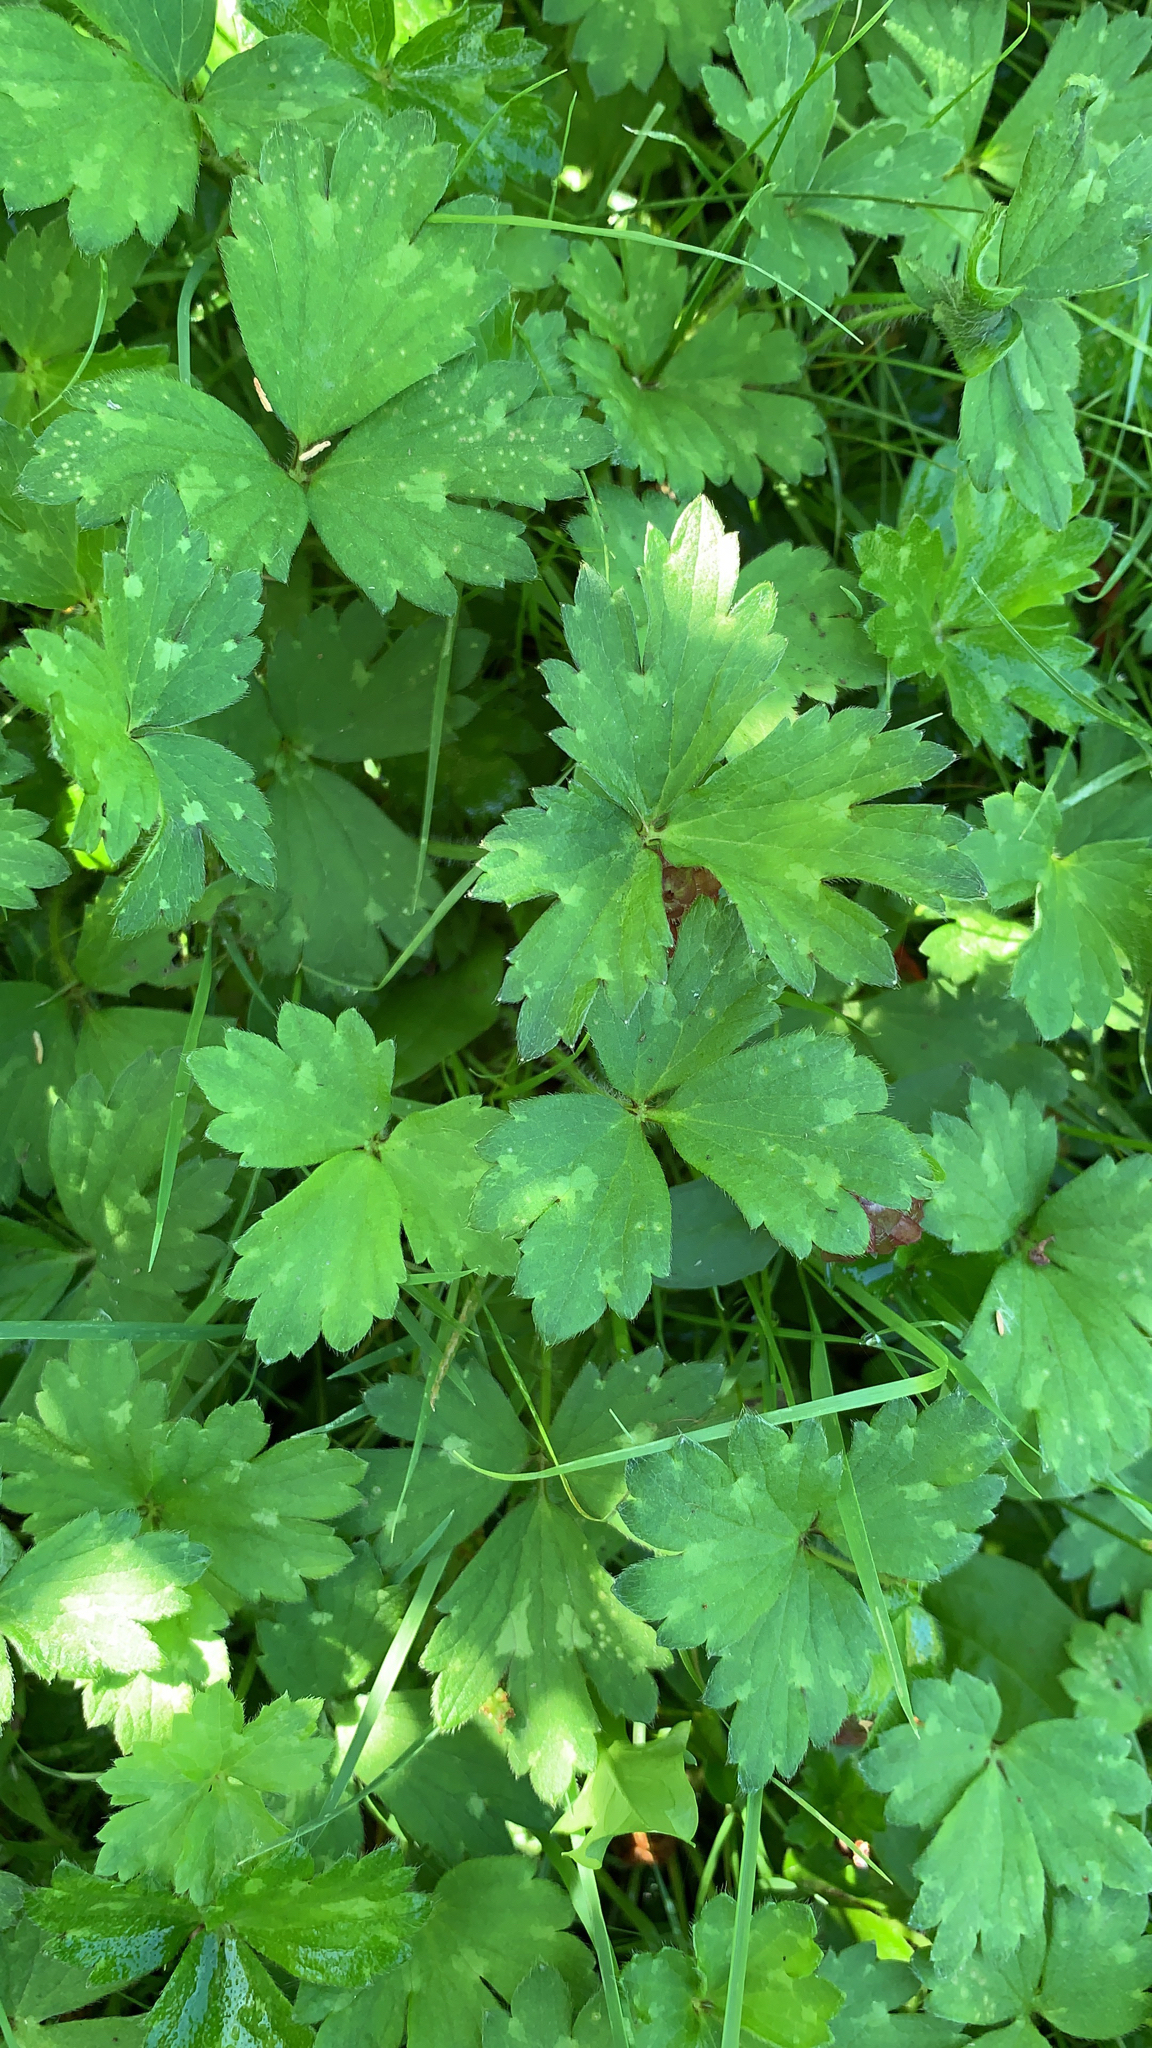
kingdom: Plantae
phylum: Tracheophyta
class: Magnoliopsida
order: Ranunculales
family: Ranunculaceae
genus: Ranunculus
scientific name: Ranunculus repens
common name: Creeping buttercup
